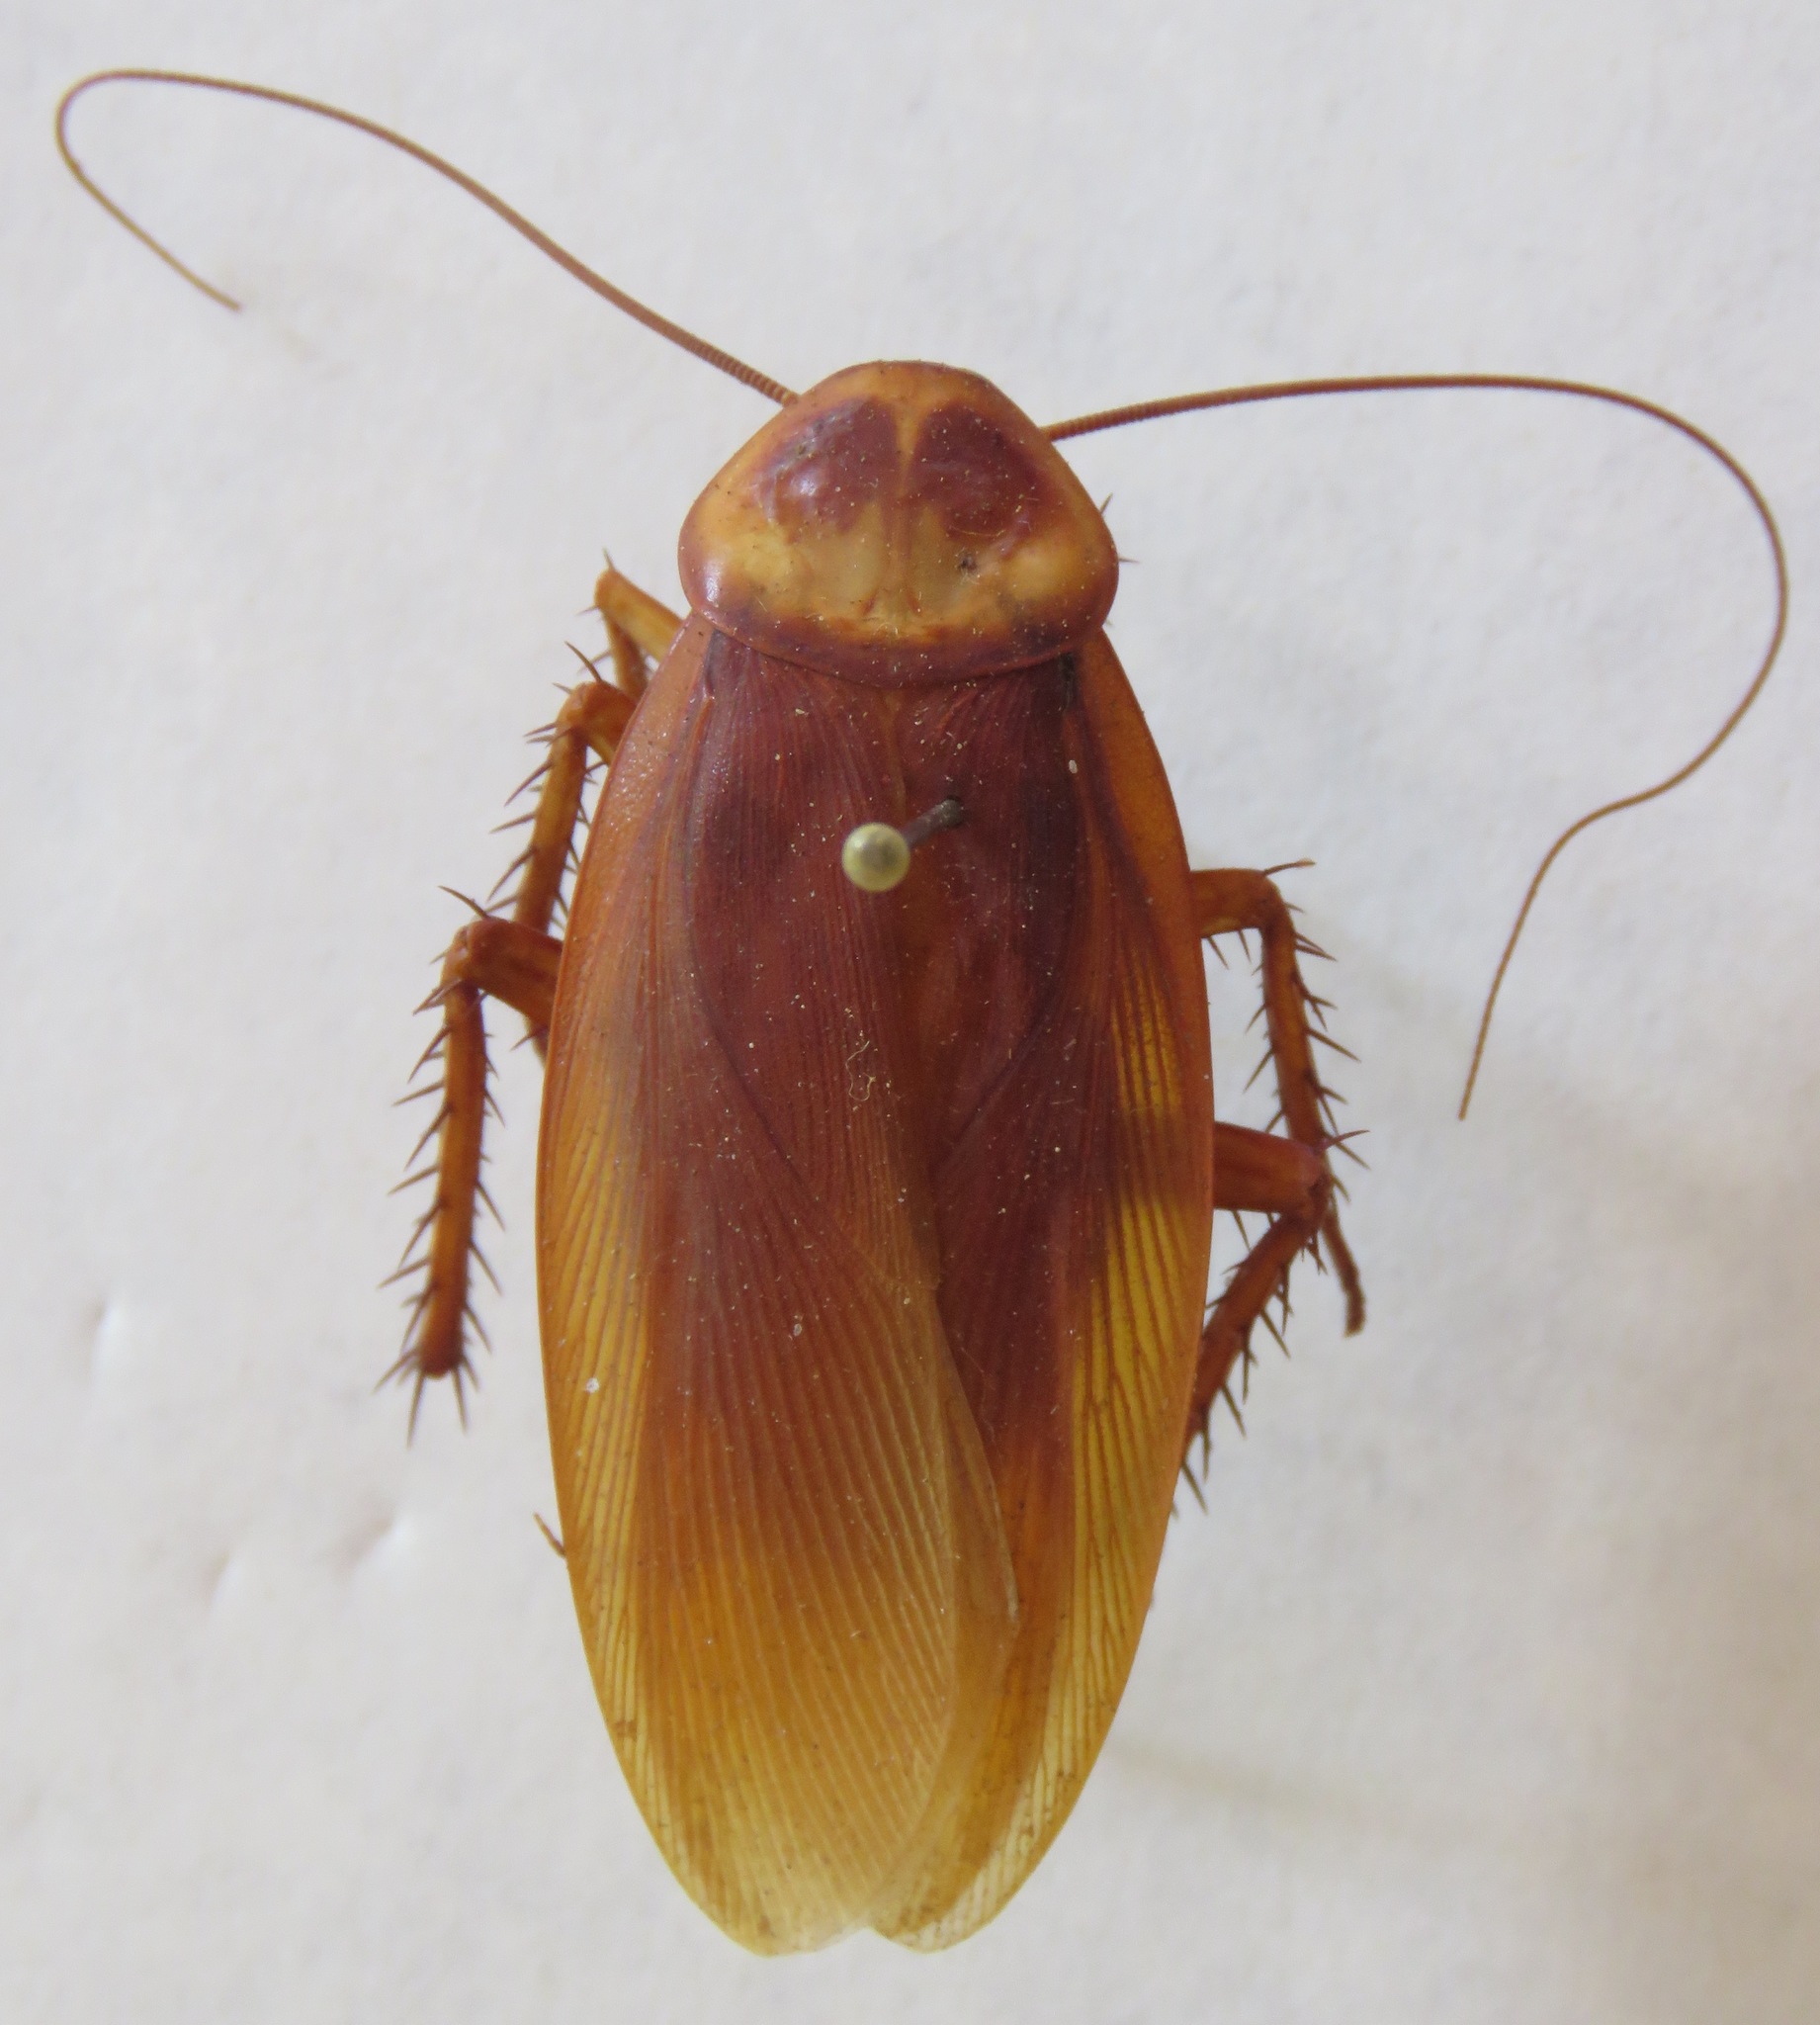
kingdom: Animalia
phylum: Arthropoda
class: Insecta
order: Blattodea
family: Blattidae
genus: Periplaneta
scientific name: Periplaneta americana
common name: American cockroach
